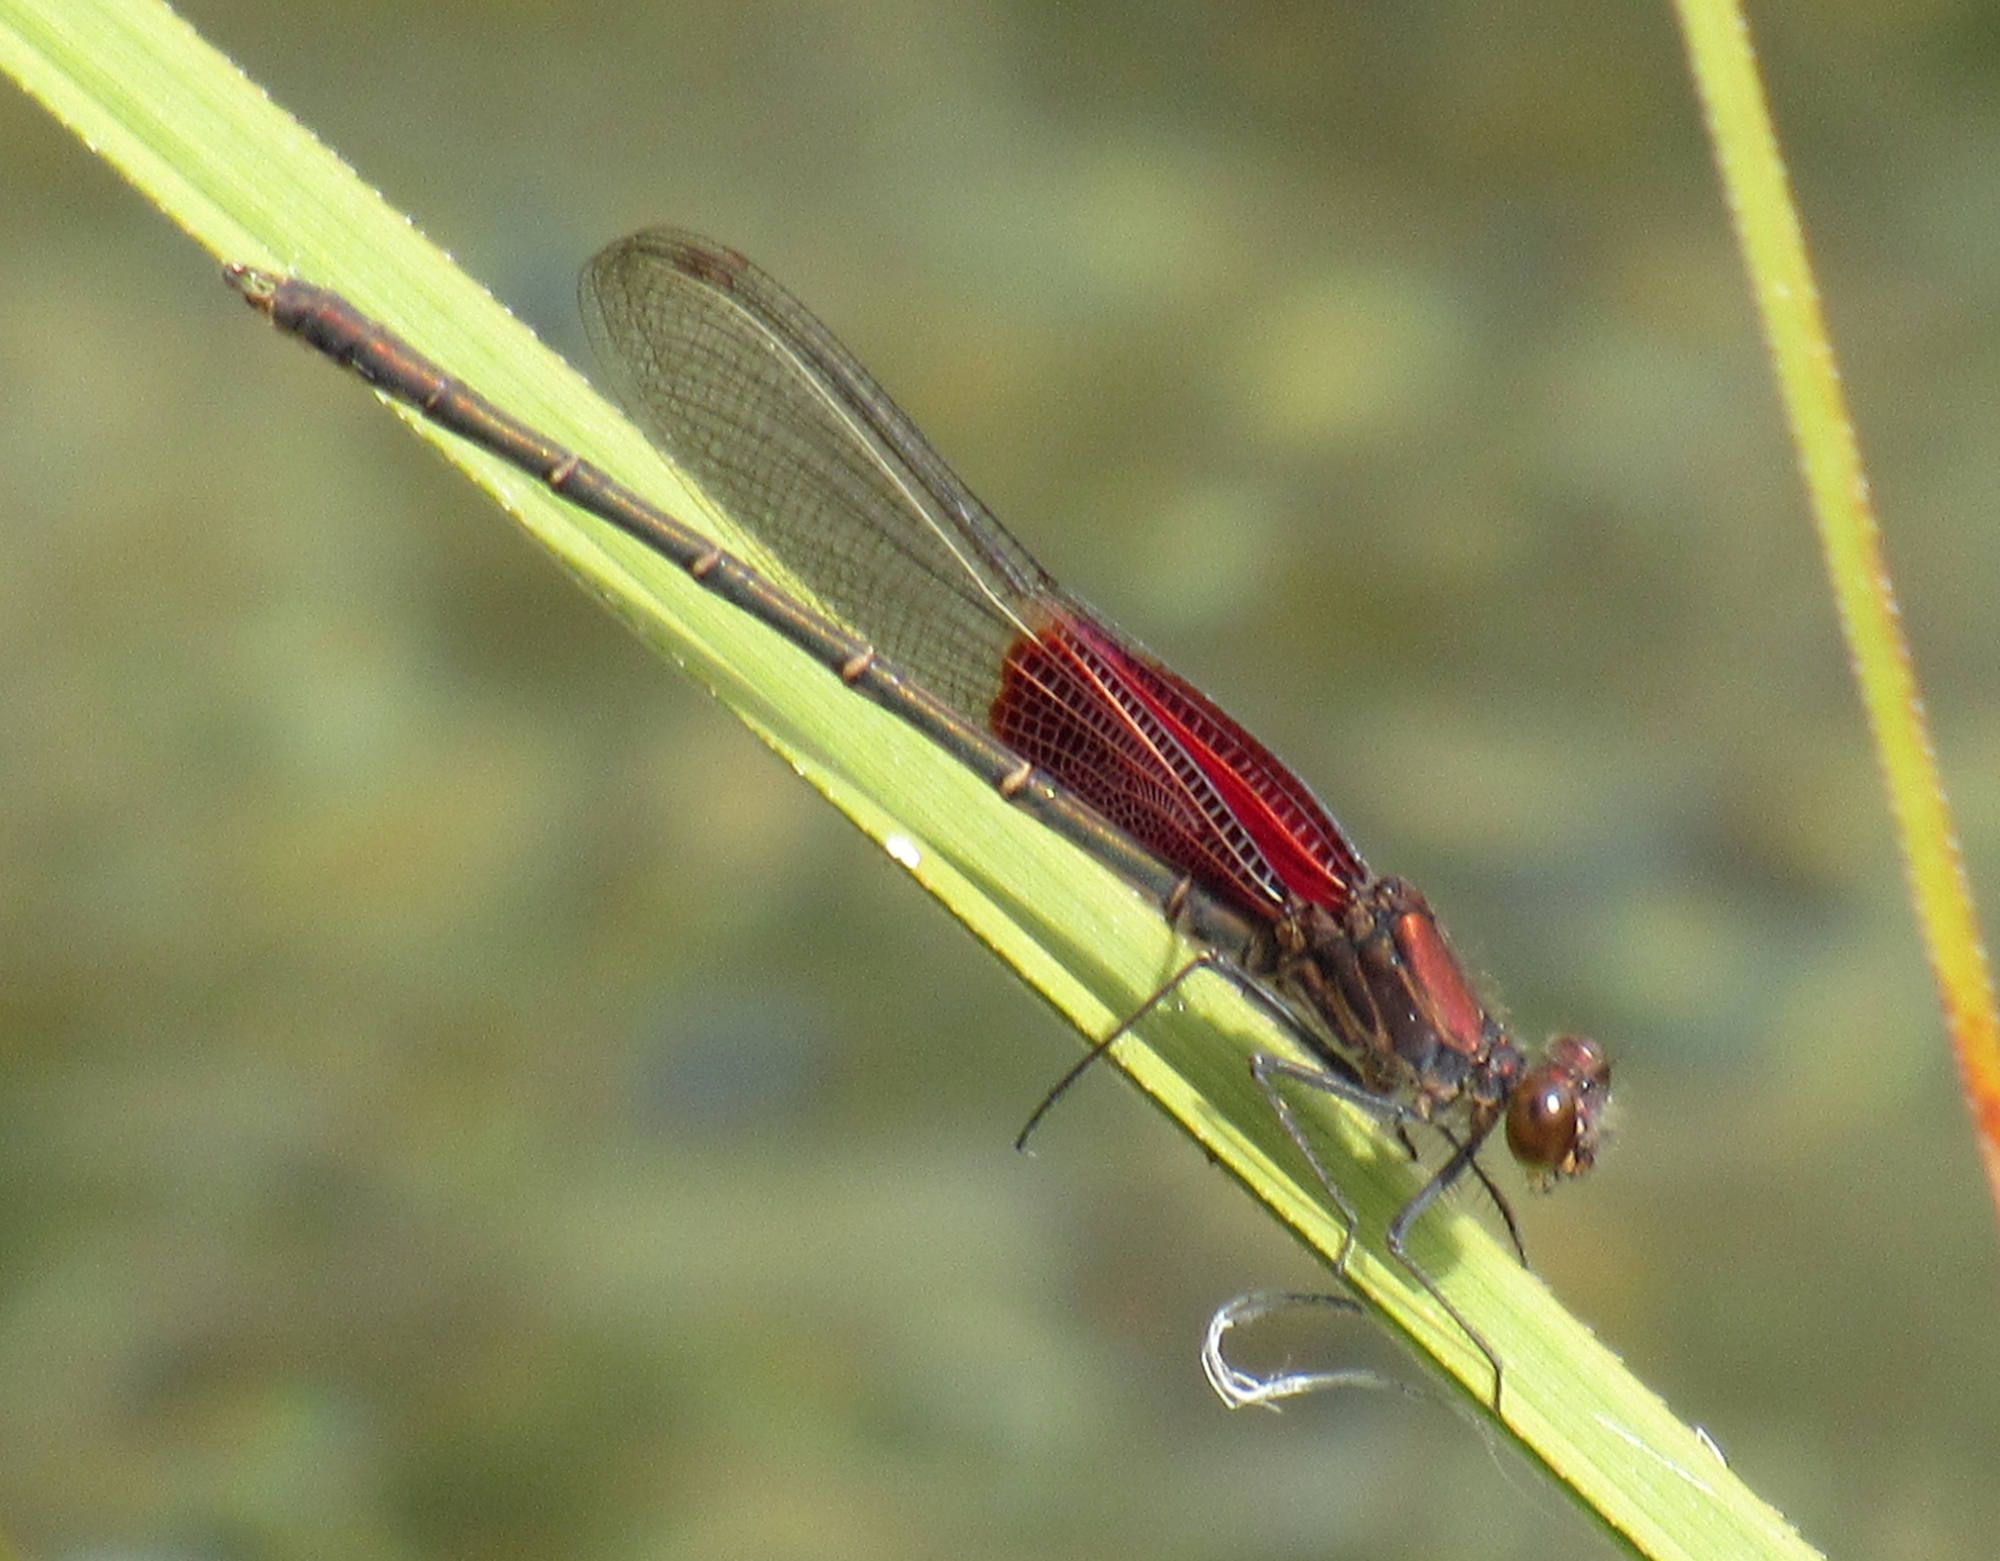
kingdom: Animalia
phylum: Arthropoda
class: Insecta
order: Odonata
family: Calopterygidae
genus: Hetaerina
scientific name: Hetaerina americana
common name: American rubyspot
